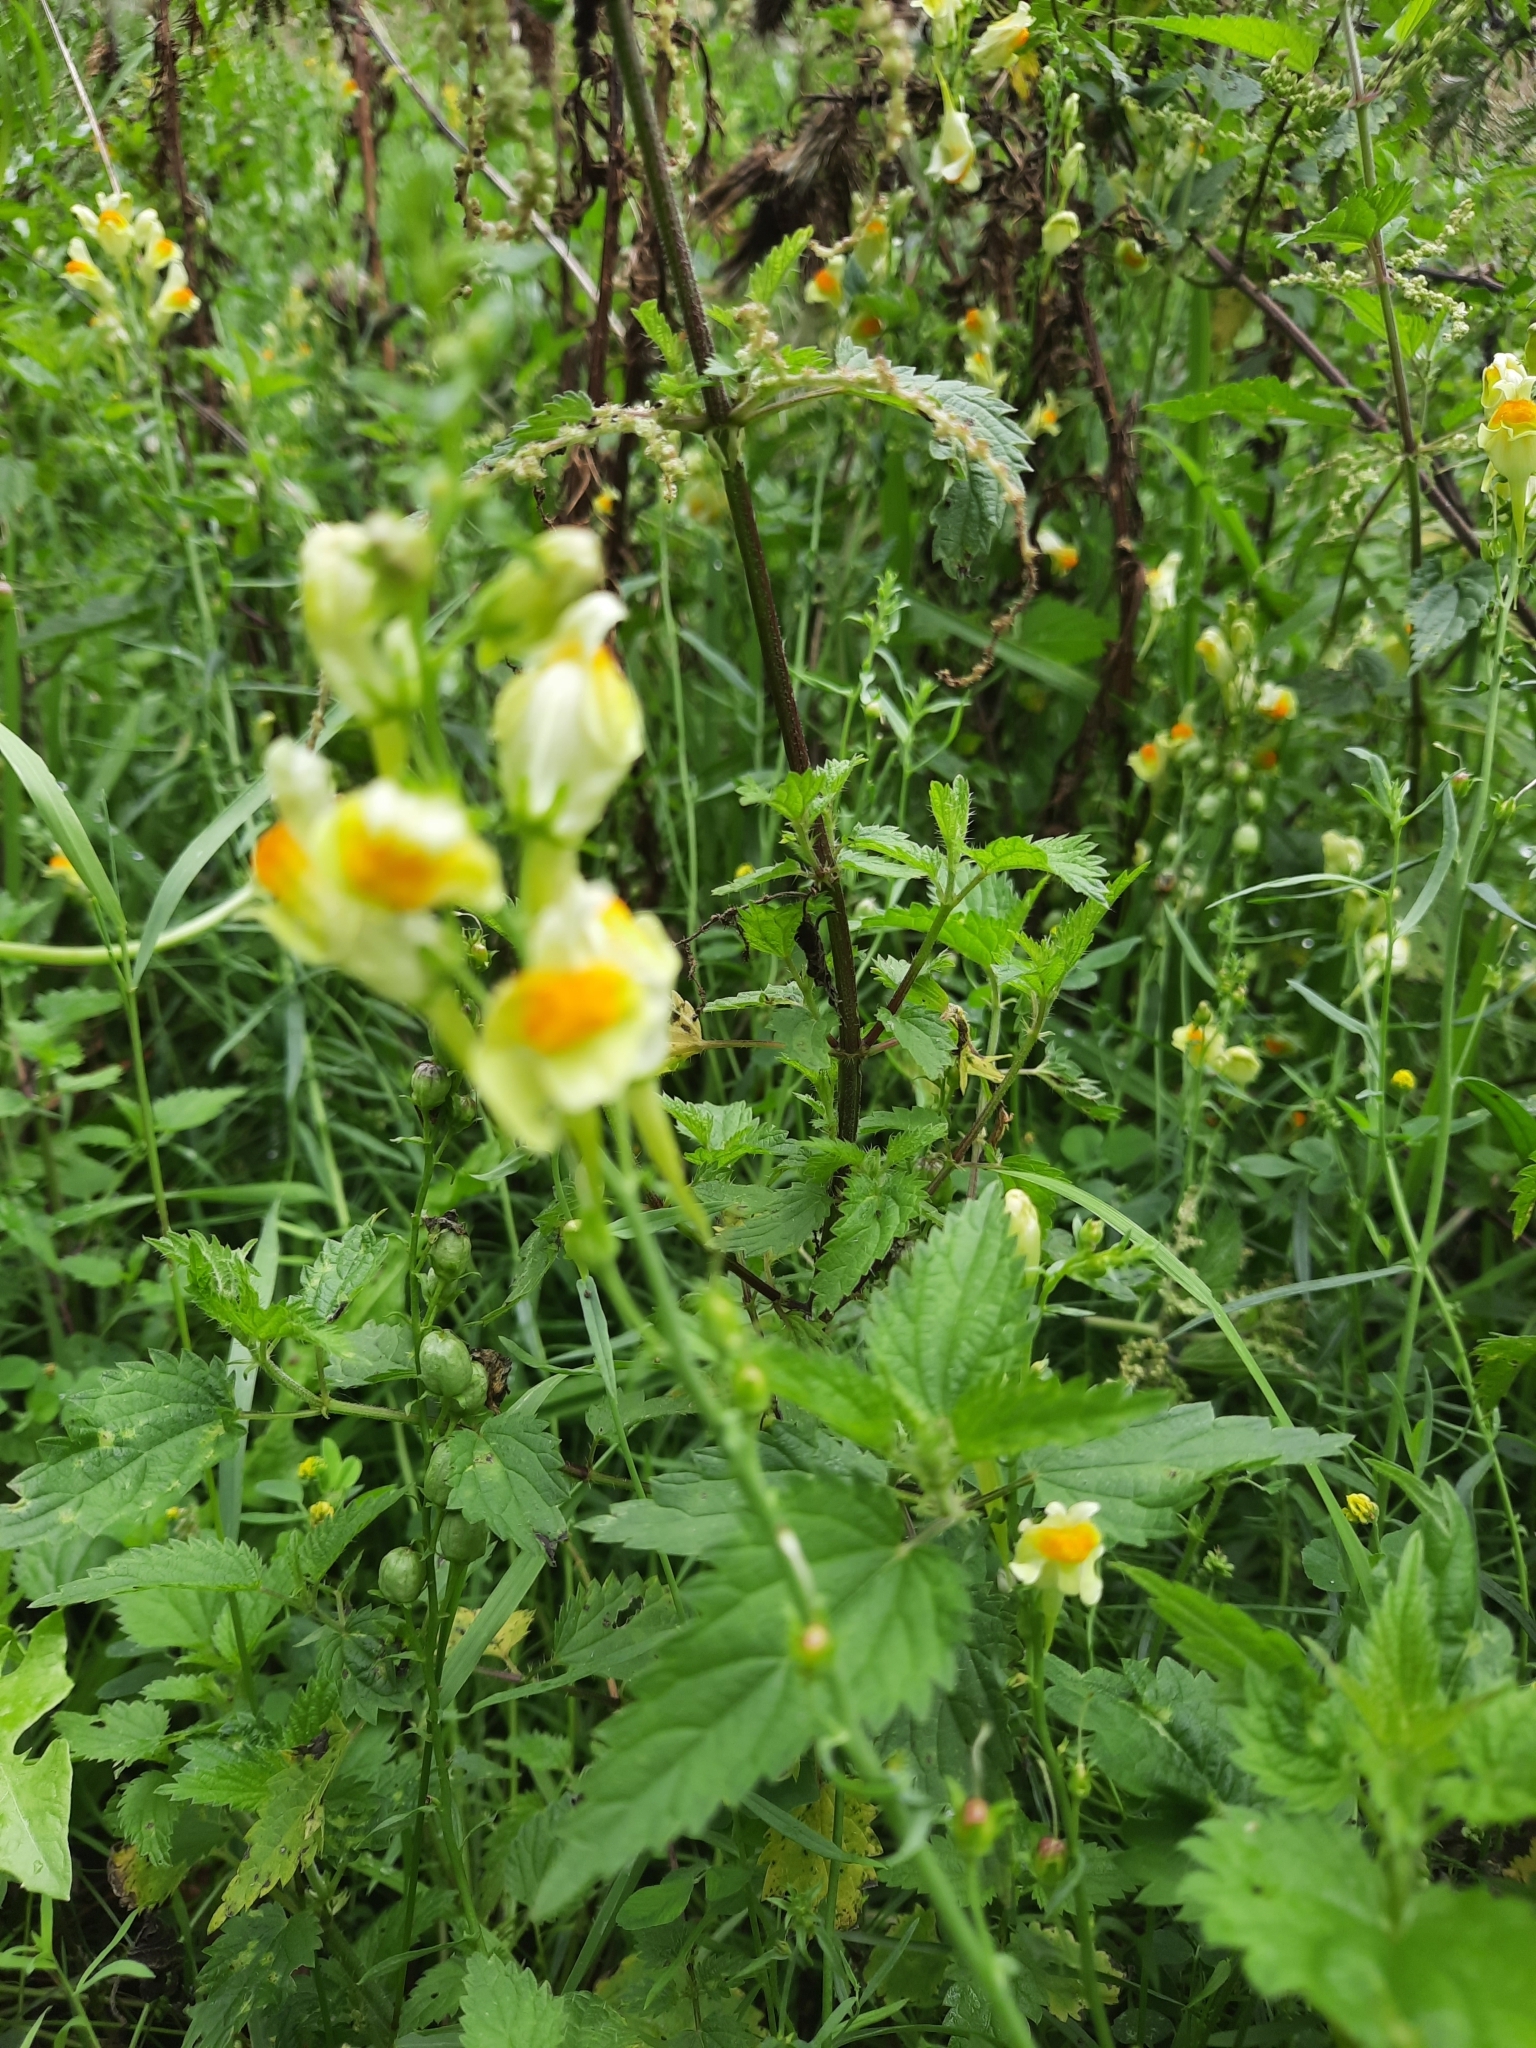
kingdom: Plantae
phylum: Tracheophyta
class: Magnoliopsida
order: Lamiales
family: Plantaginaceae
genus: Linaria
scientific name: Linaria vulgaris
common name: Butter and eggs
